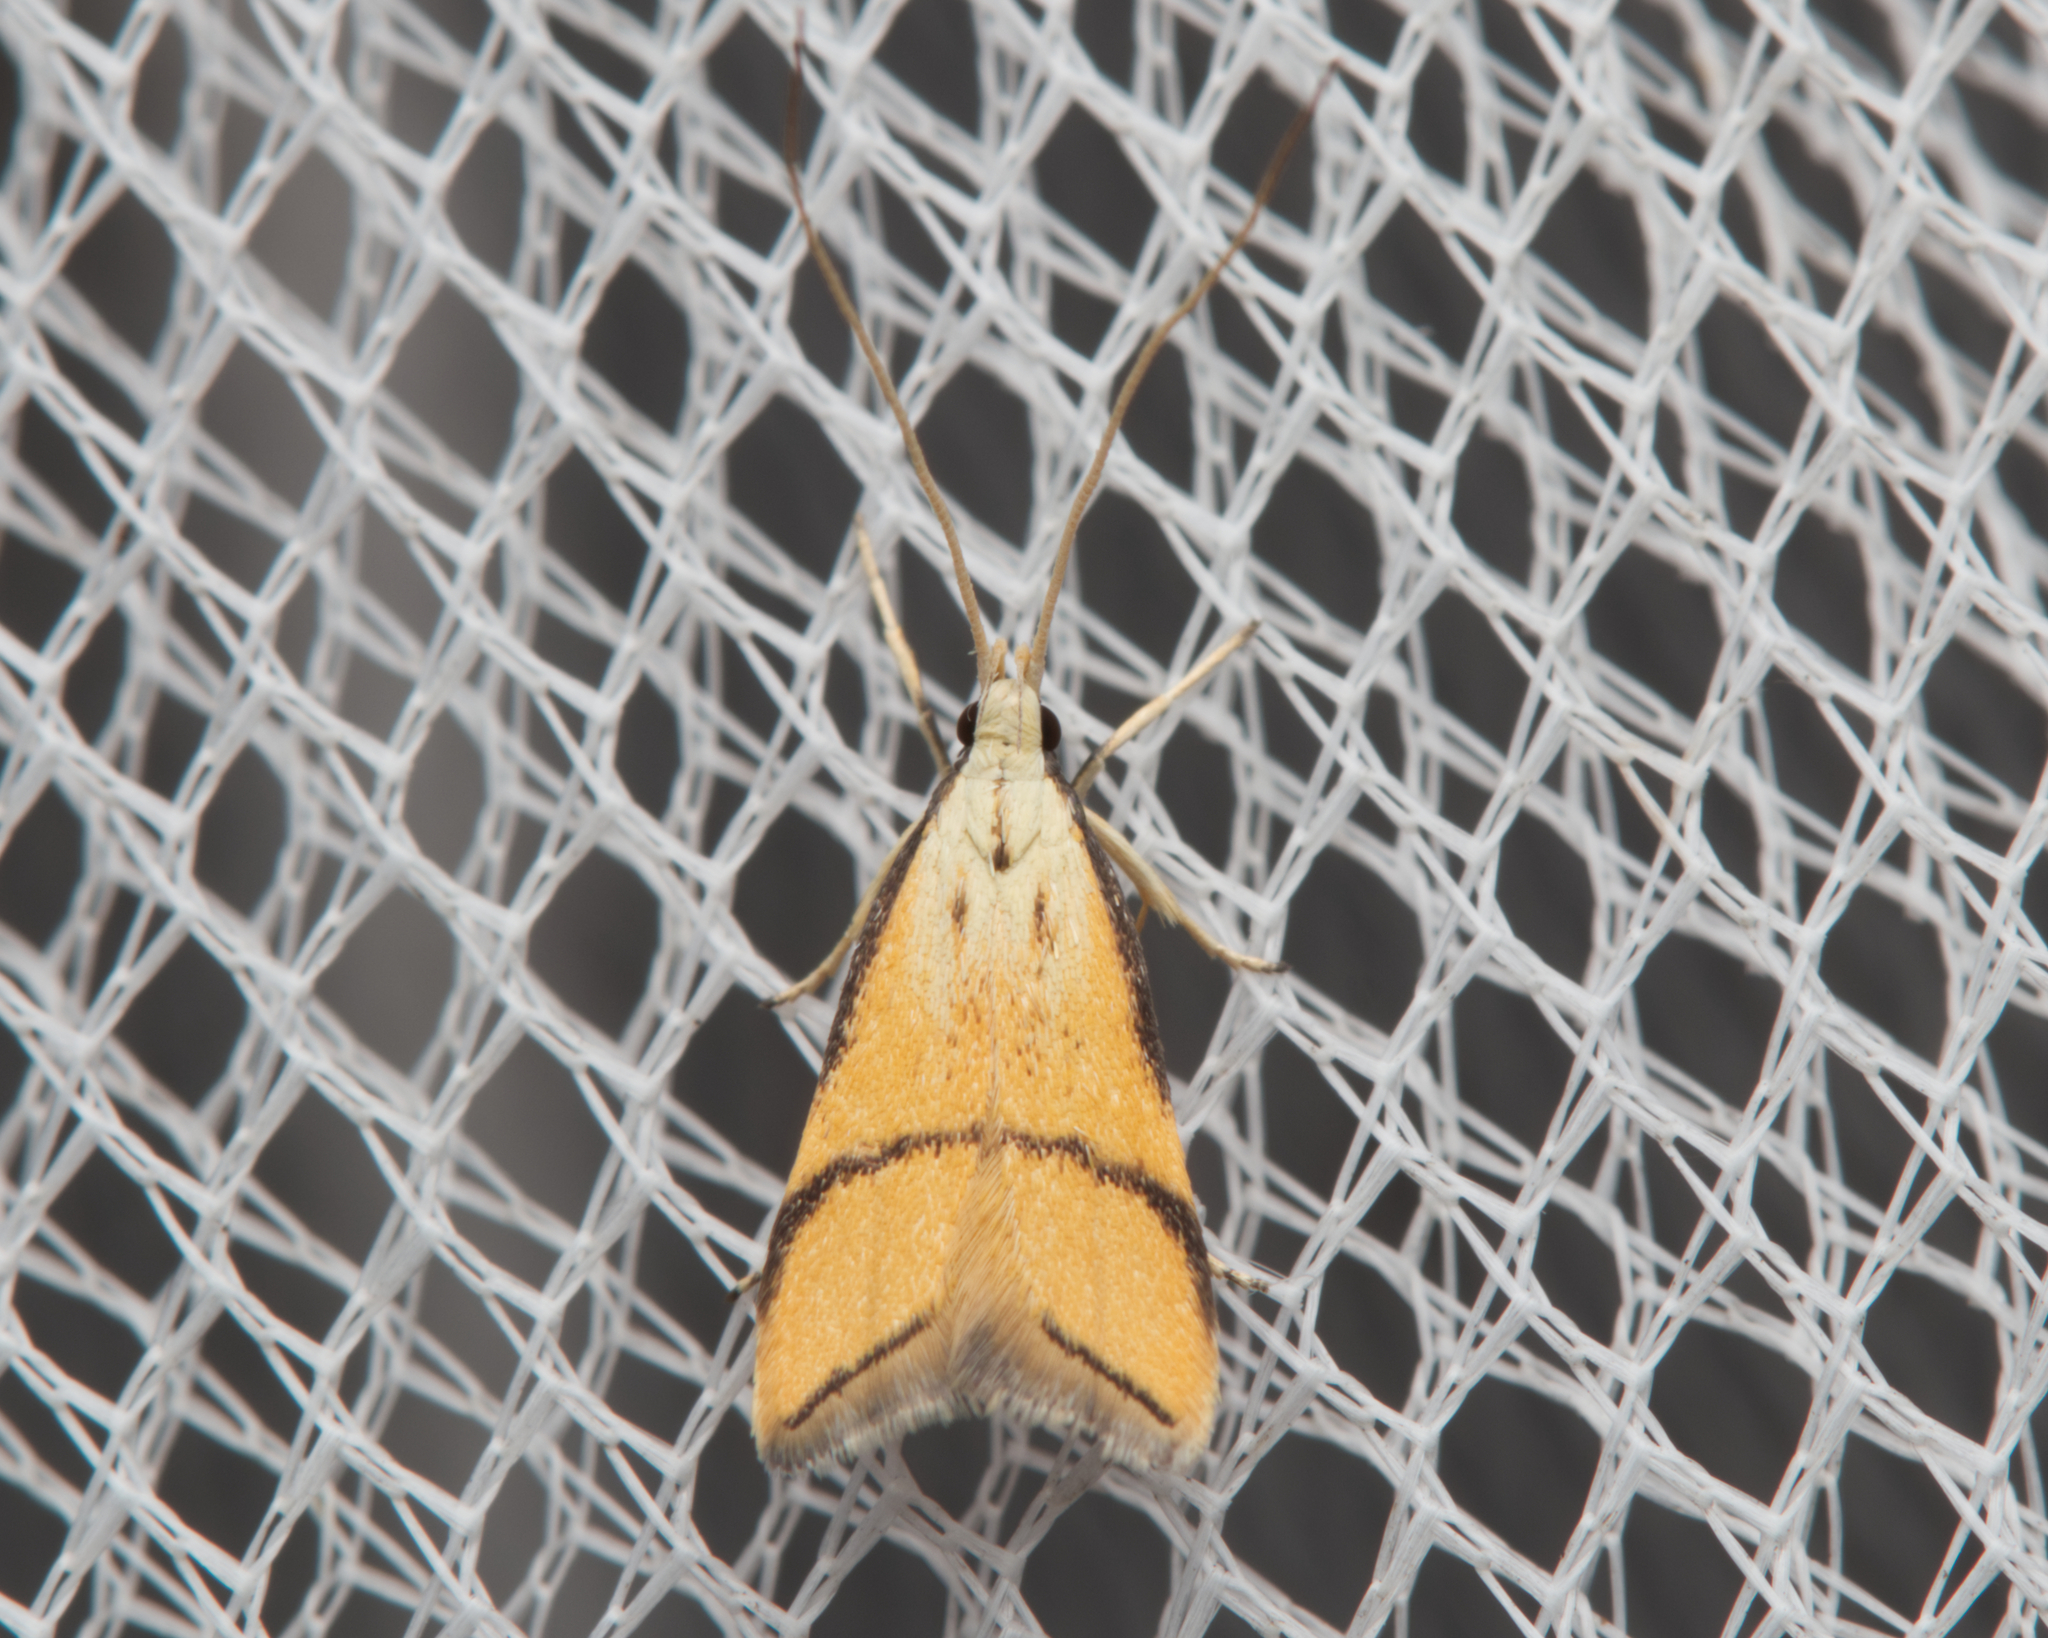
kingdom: Animalia
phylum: Arthropoda
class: Insecta
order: Lepidoptera
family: Lecithoceridae
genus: Crocanthes
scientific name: Crocanthes perigrapta
